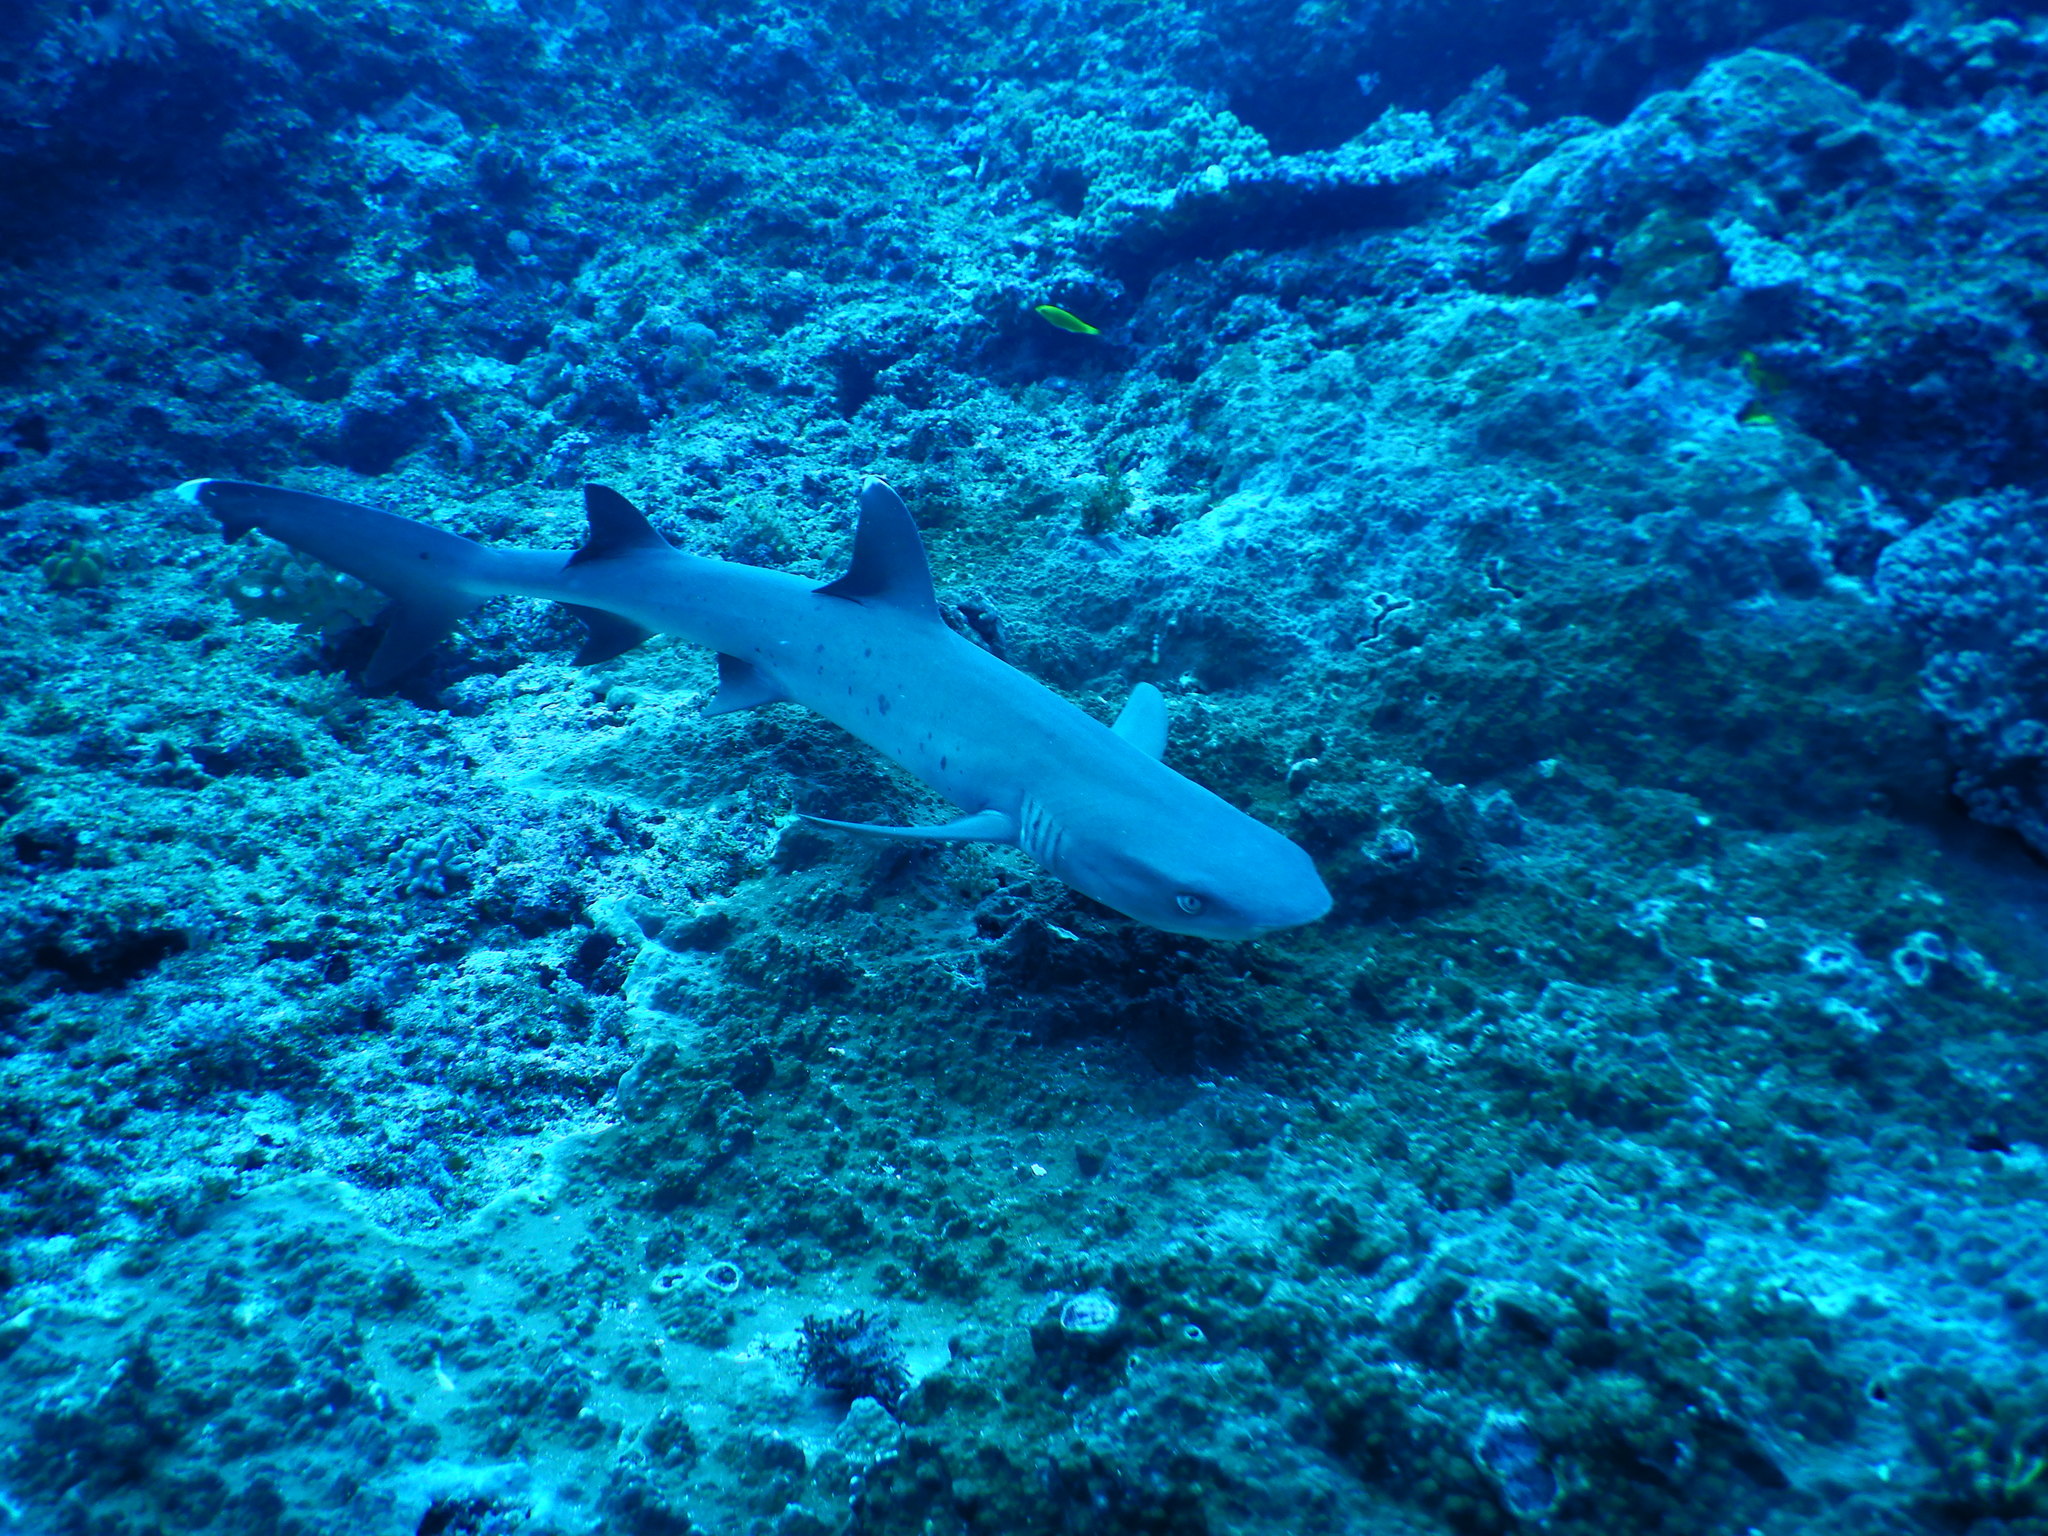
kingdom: Animalia
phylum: Chordata
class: Elasmobranchii
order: Carcharhiniformes
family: Carcharhinidae
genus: Triaenodon
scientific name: Triaenodon obesus
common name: Whitetip reef shark
